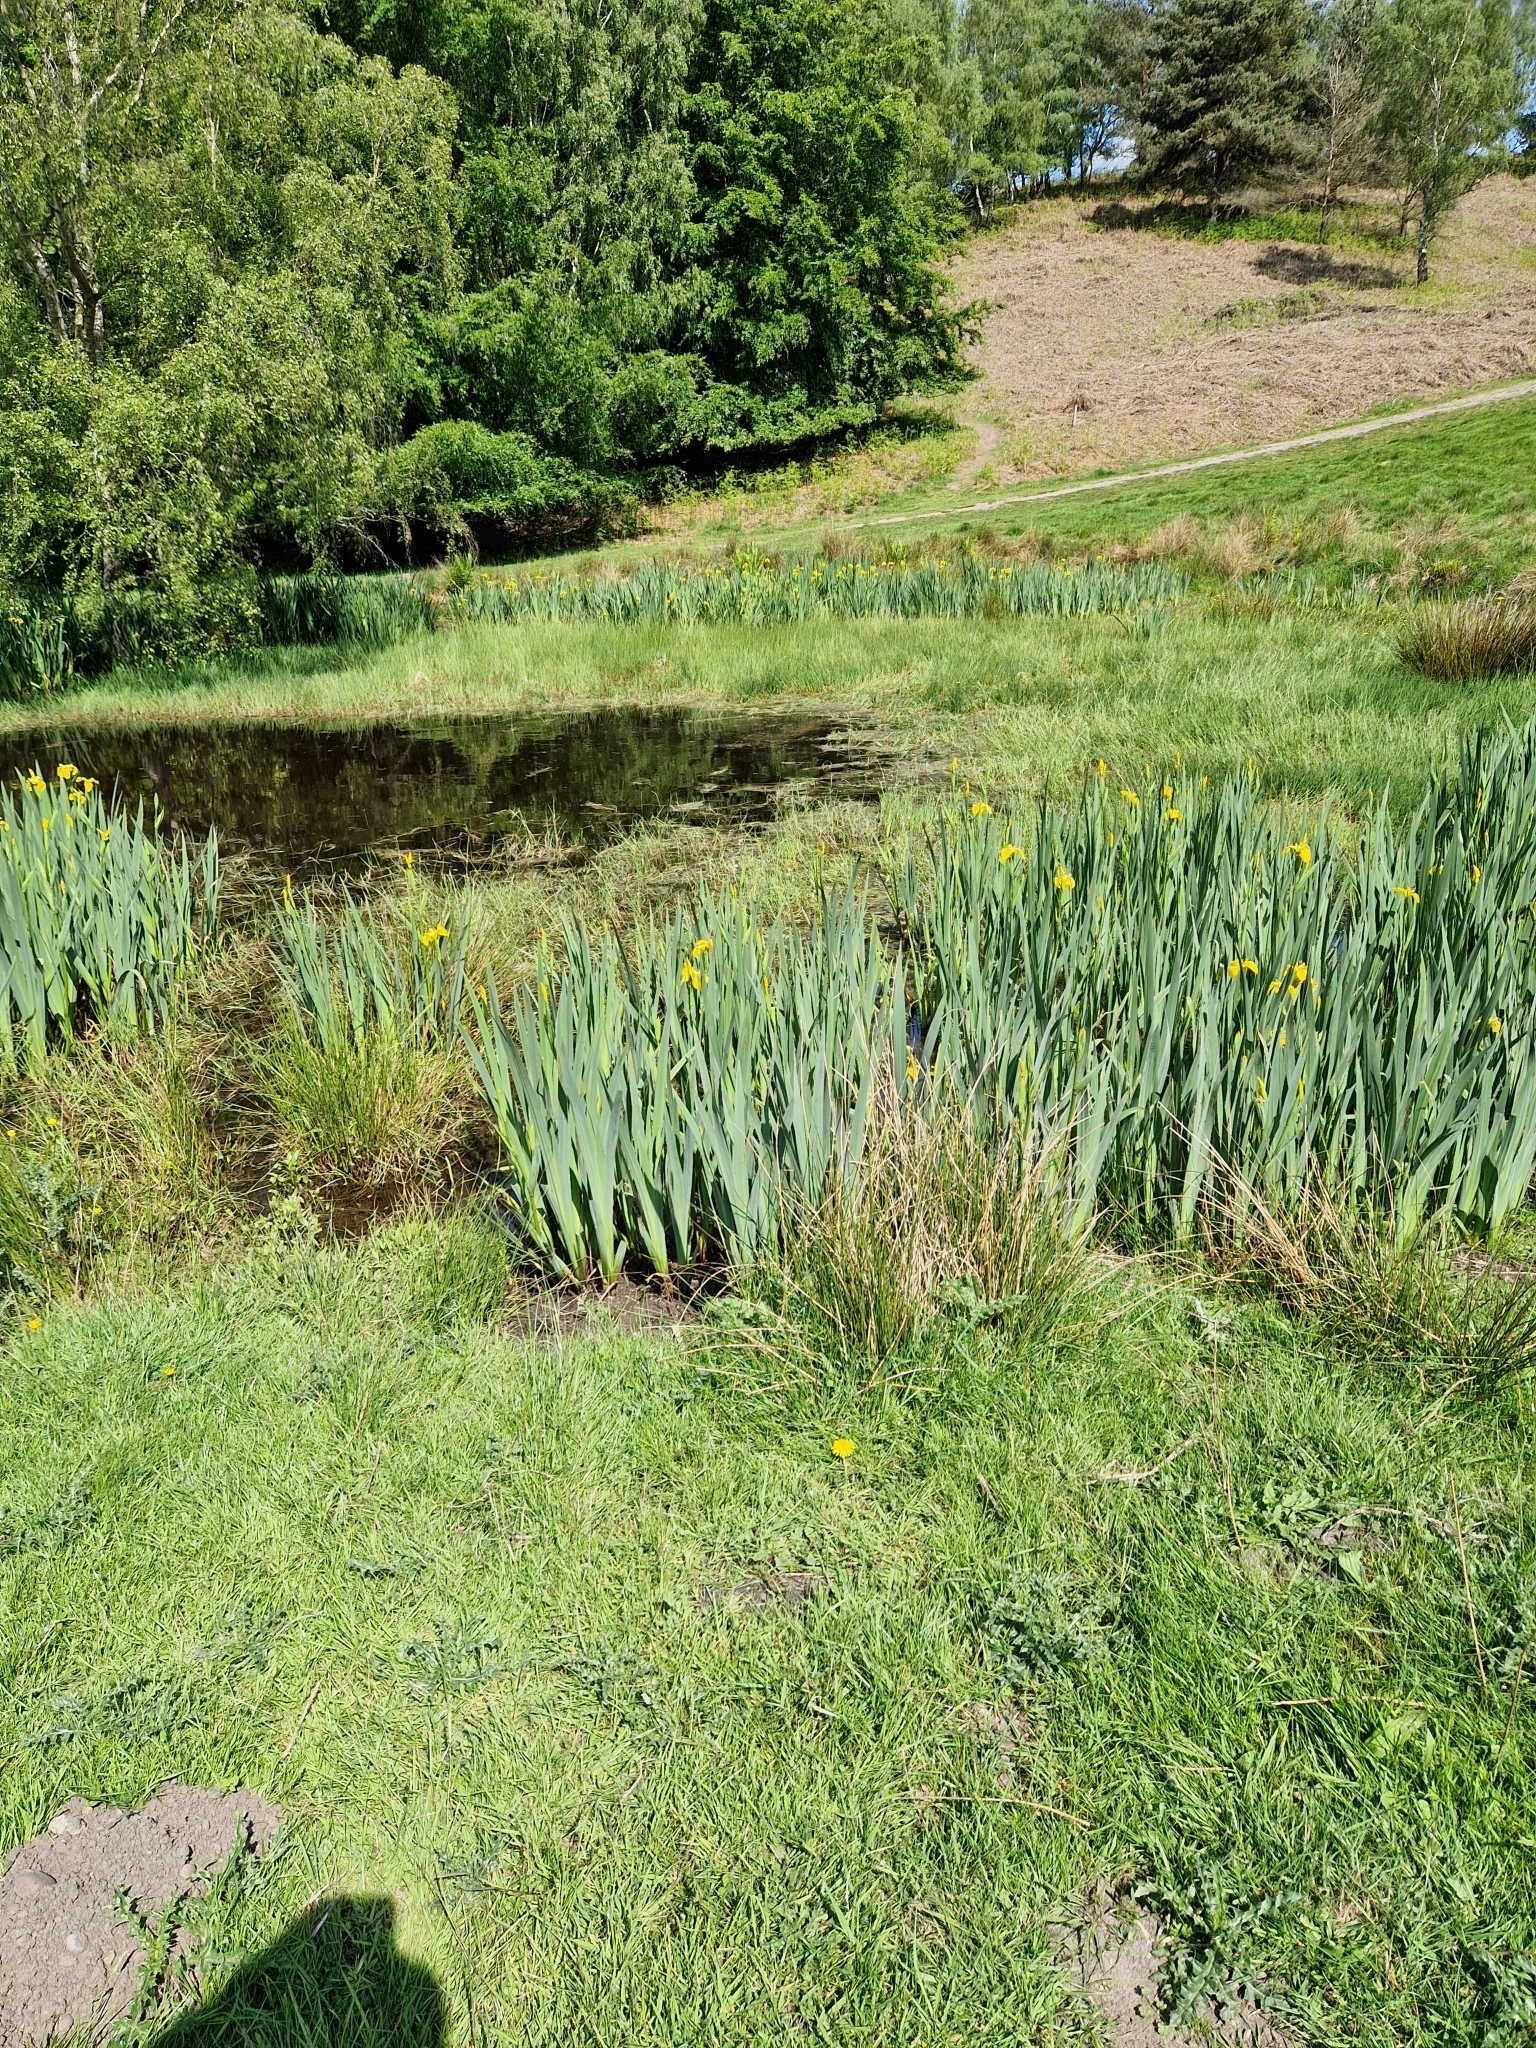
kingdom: Plantae
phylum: Tracheophyta
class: Liliopsida
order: Asparagales
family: Iridaceae
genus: Iris
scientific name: Iris pseudacorus
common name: Yellow flag
